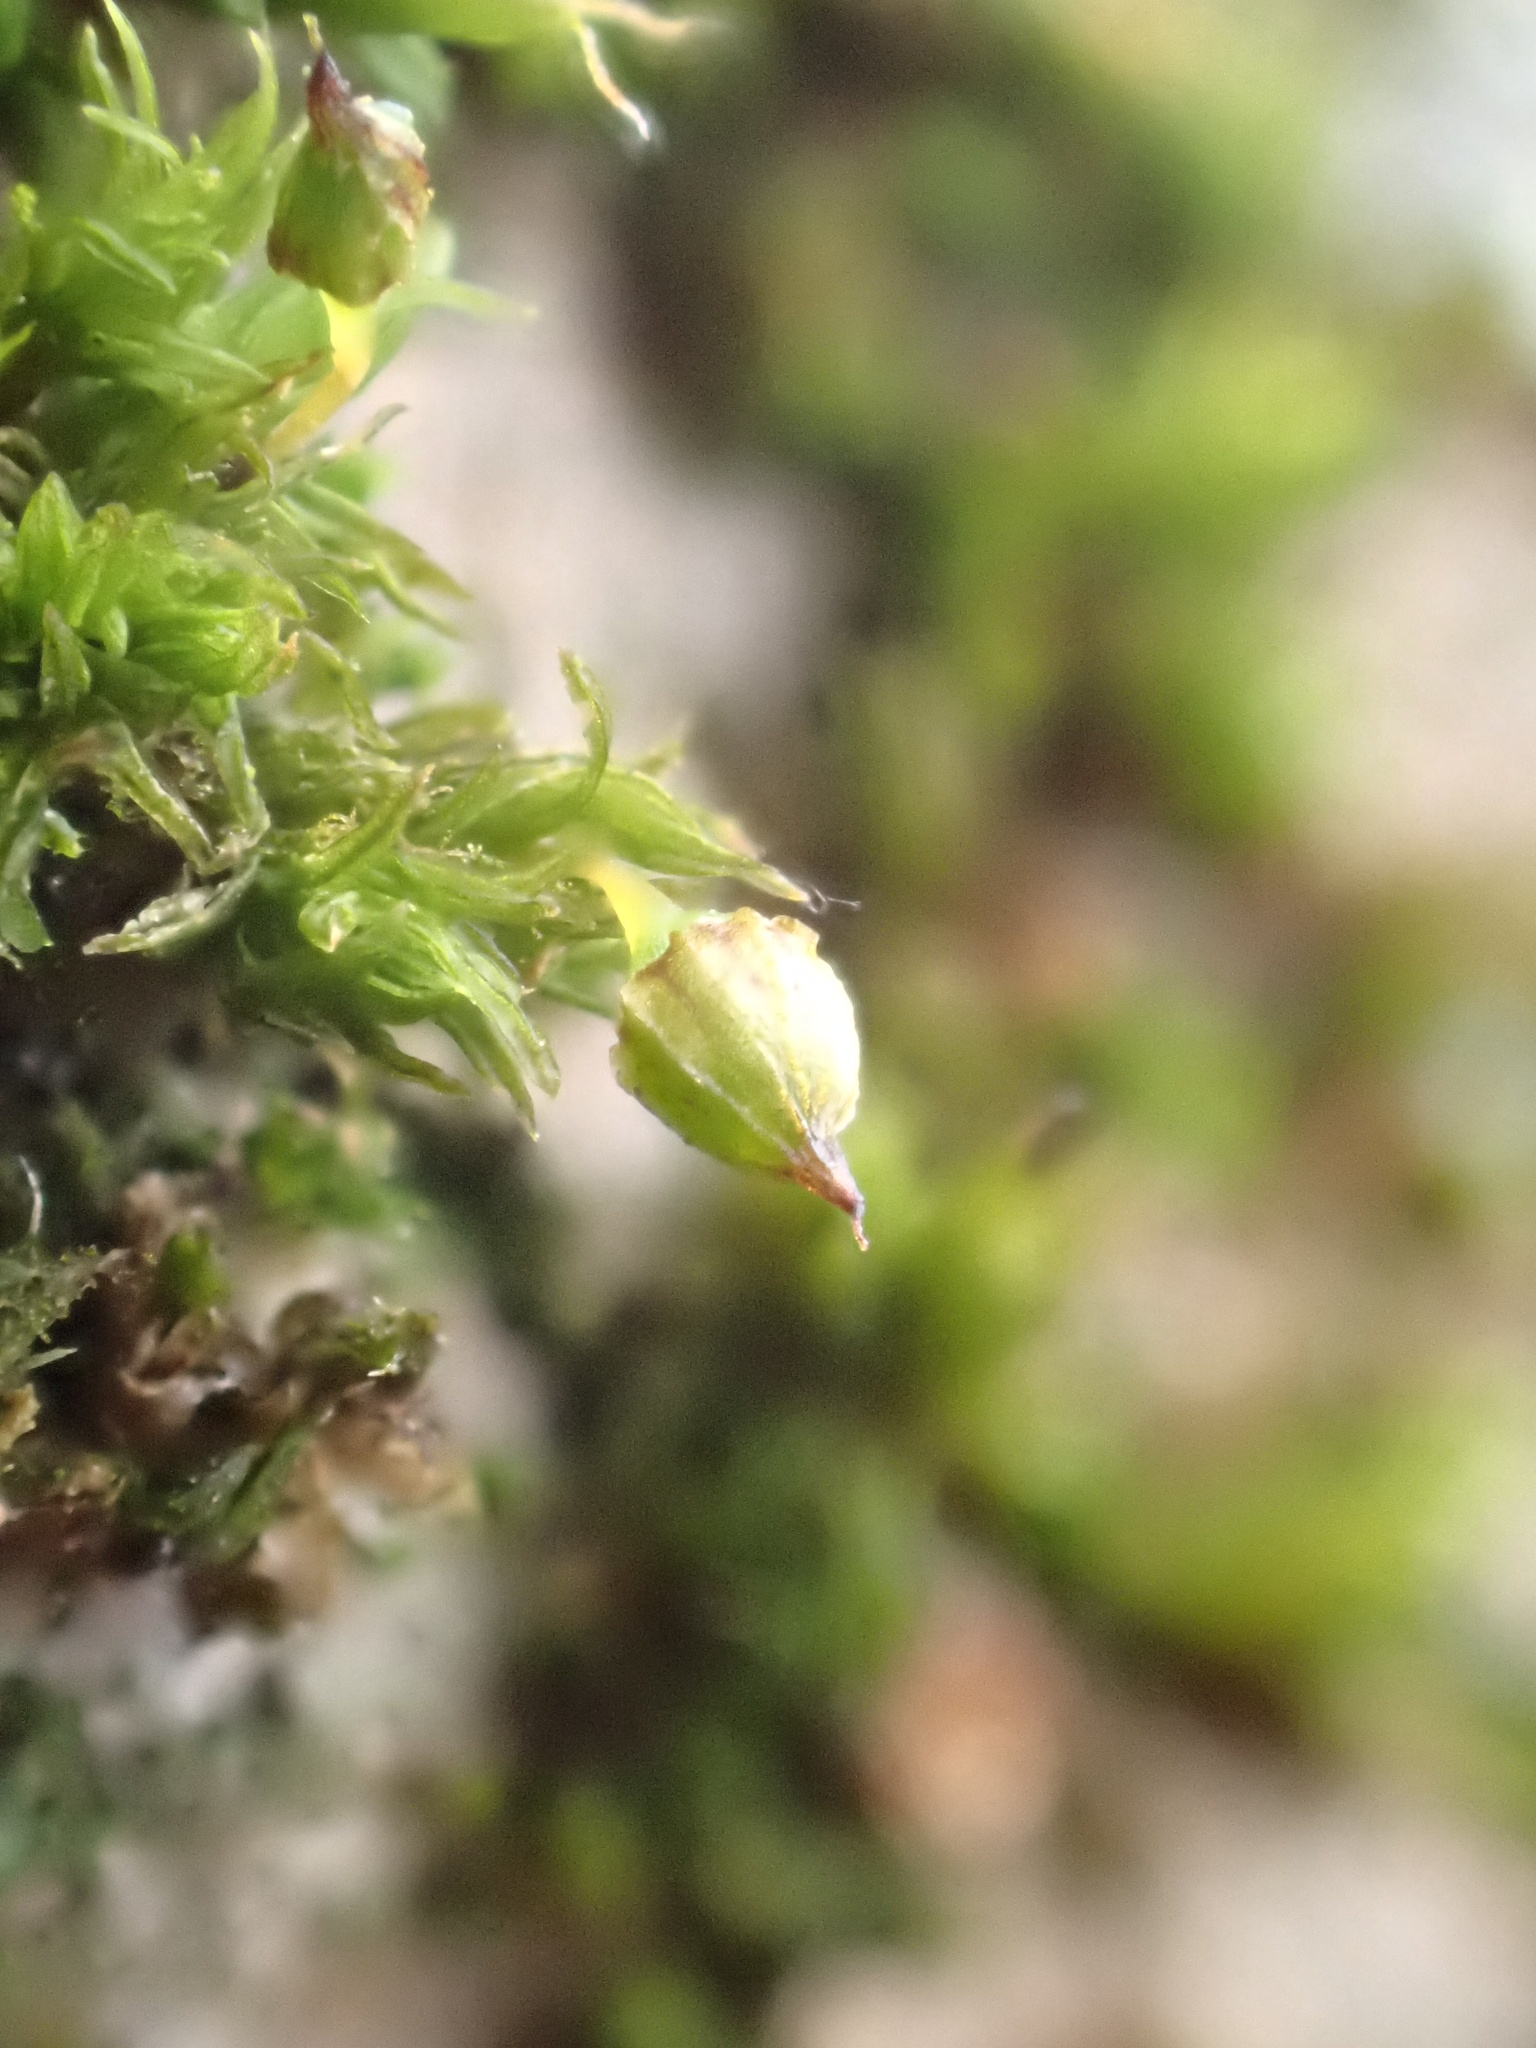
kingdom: Plantae
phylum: Bryophyta
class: Bryopsida
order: Orthotrichales
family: Orthotrichaceae
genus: Orthotrichum
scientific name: Orthotrichum pulchellum
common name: Elegant bristle-moss
